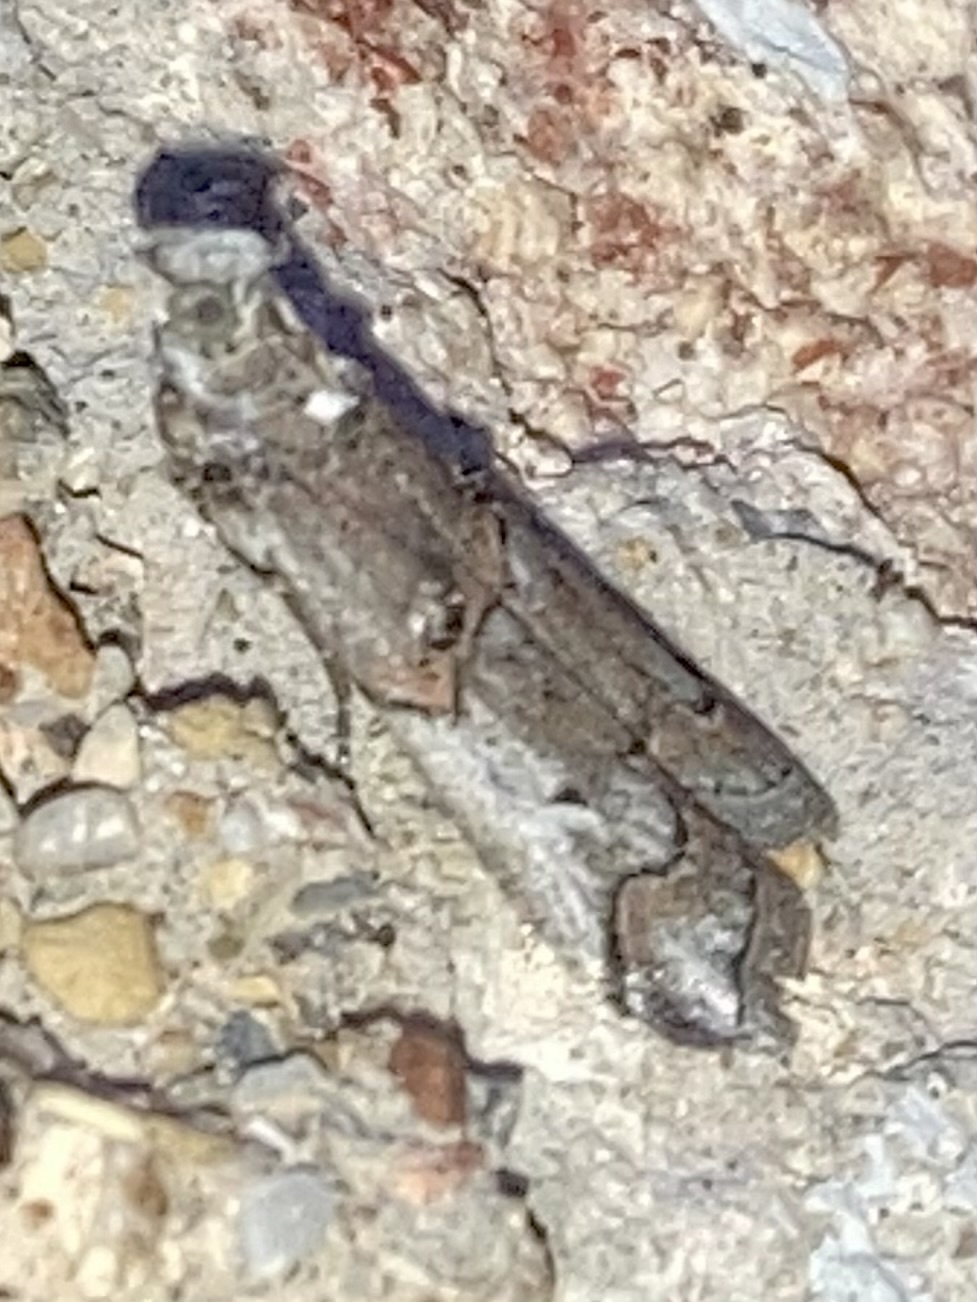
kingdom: Animalia
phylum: Arthropoda
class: Insecta
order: Lepidoptera
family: Pyralidae
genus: Pempelia
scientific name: Pempelia palumbella
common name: Heather knot-horn
